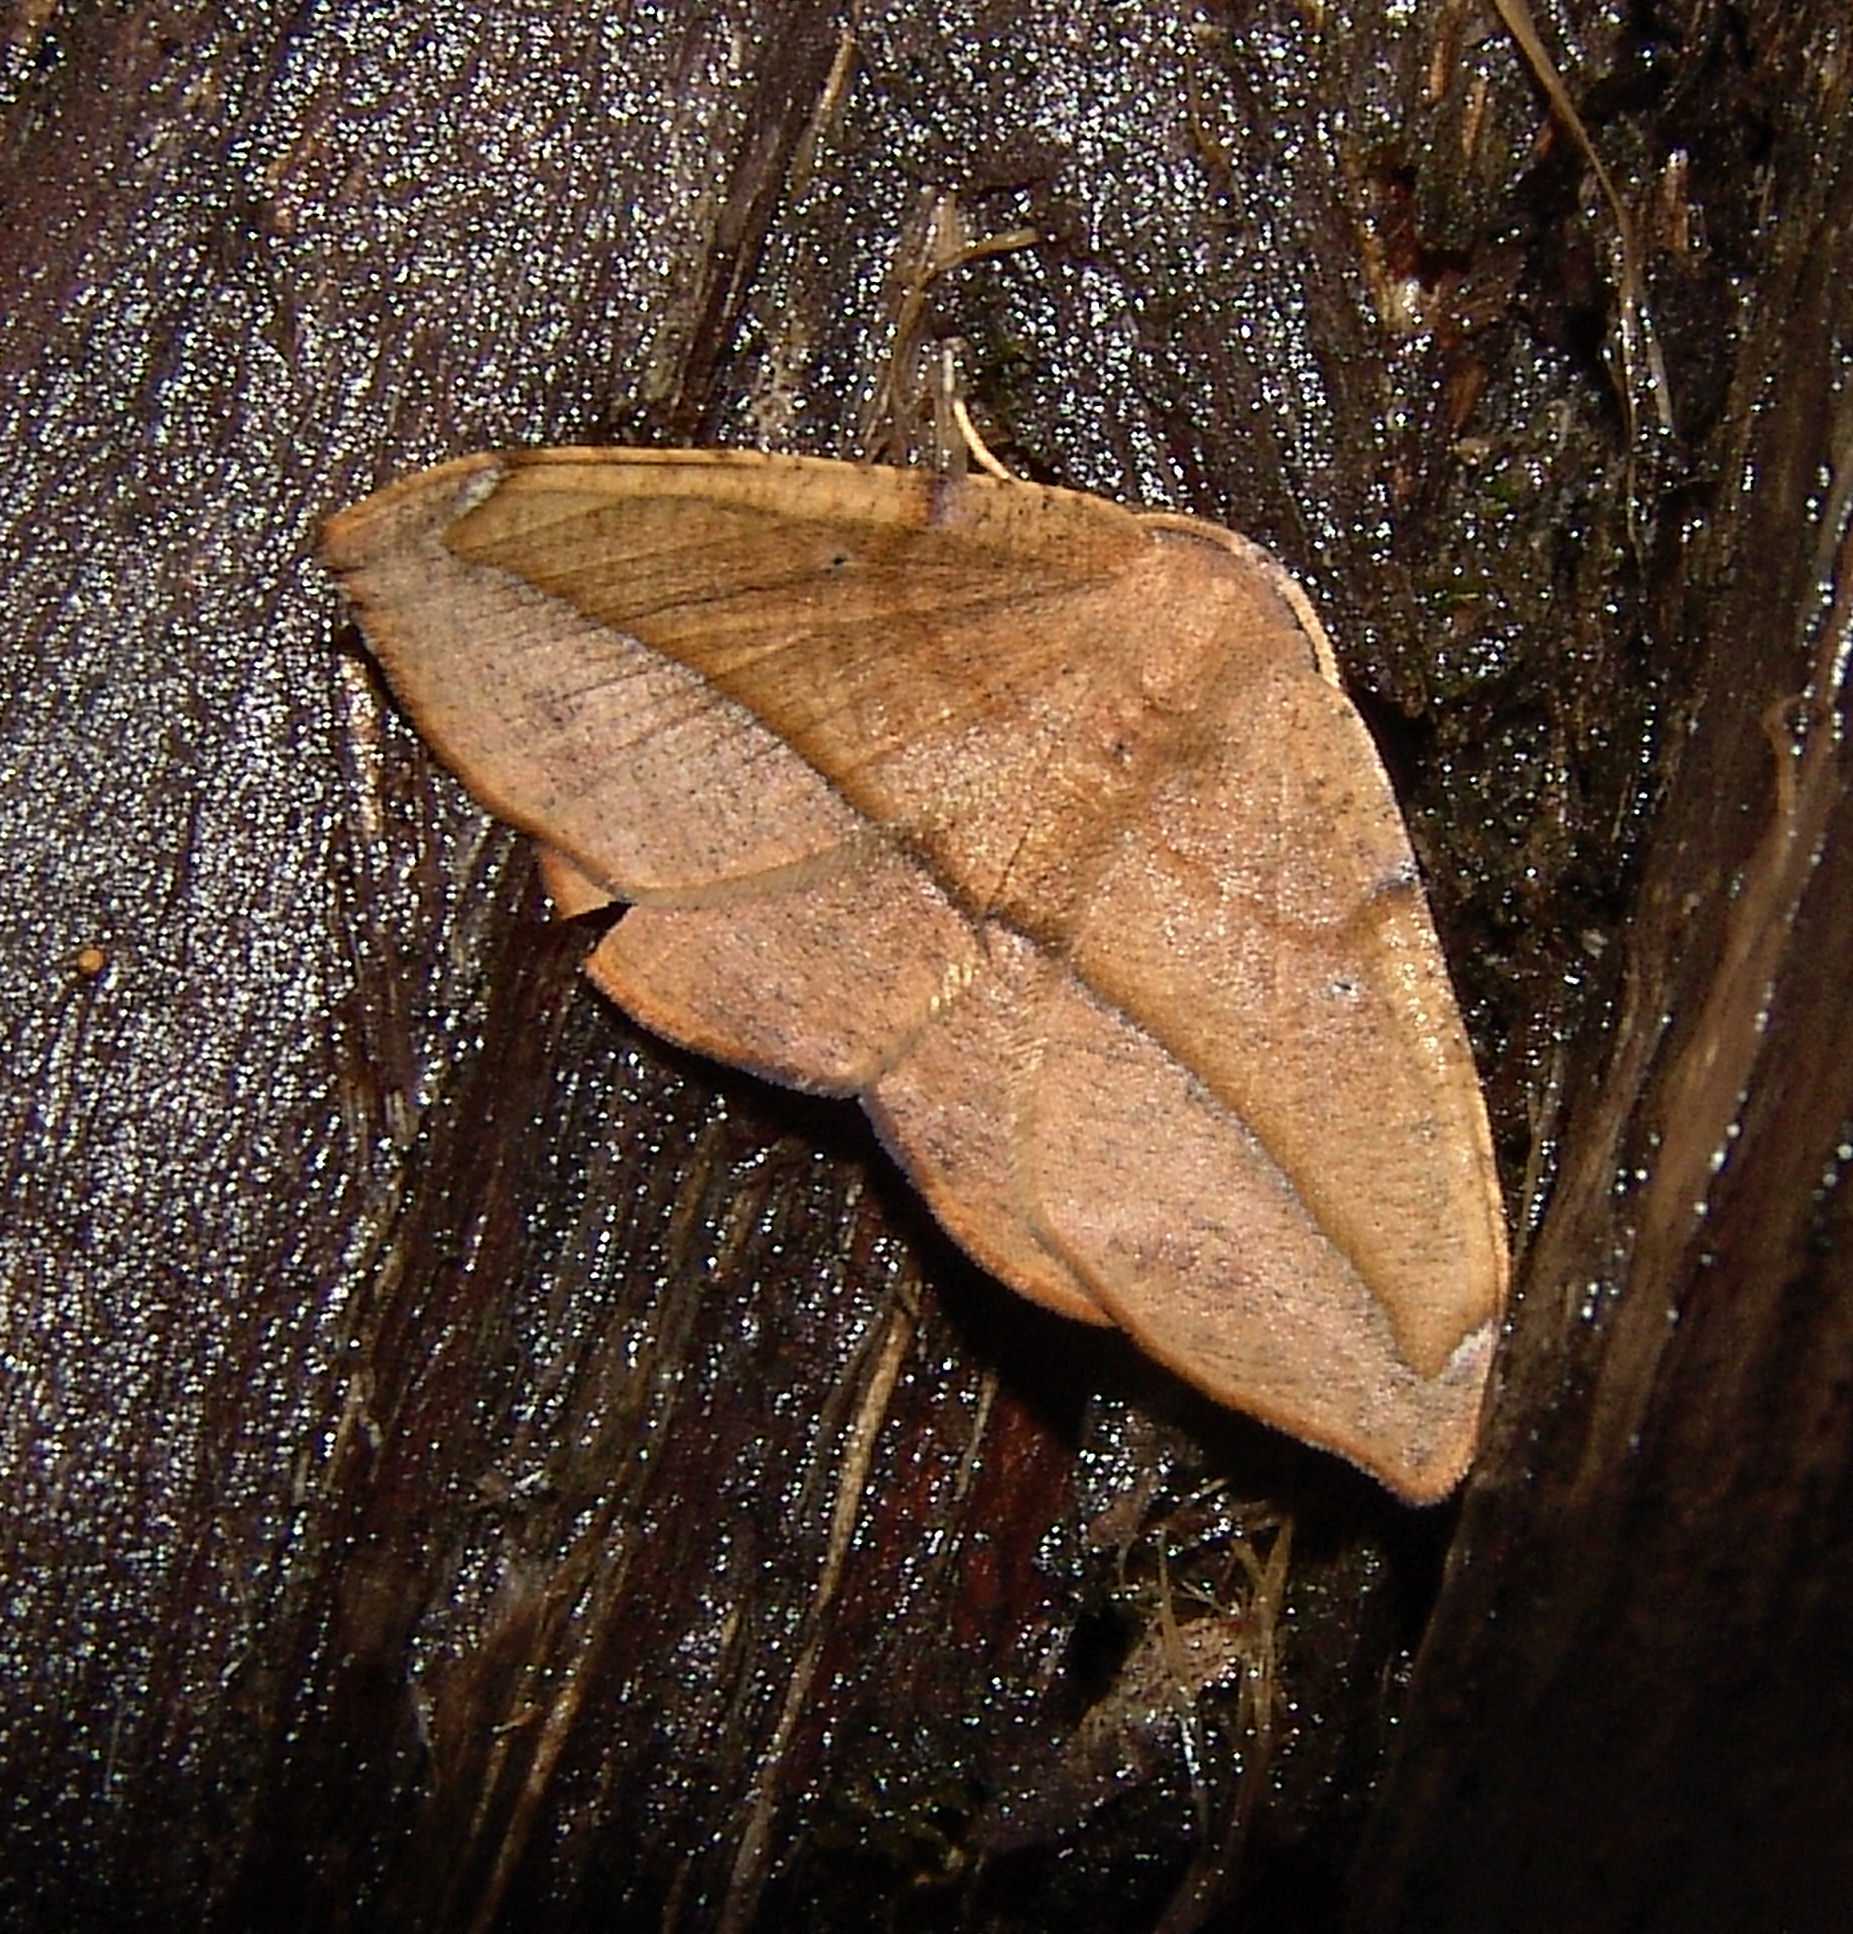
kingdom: Animalia
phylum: Arthropoda
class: Insecta
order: Lepidoptera
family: Geometridae
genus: Patalene
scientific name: Patalene olyzonaria
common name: Juniper geometer moth
